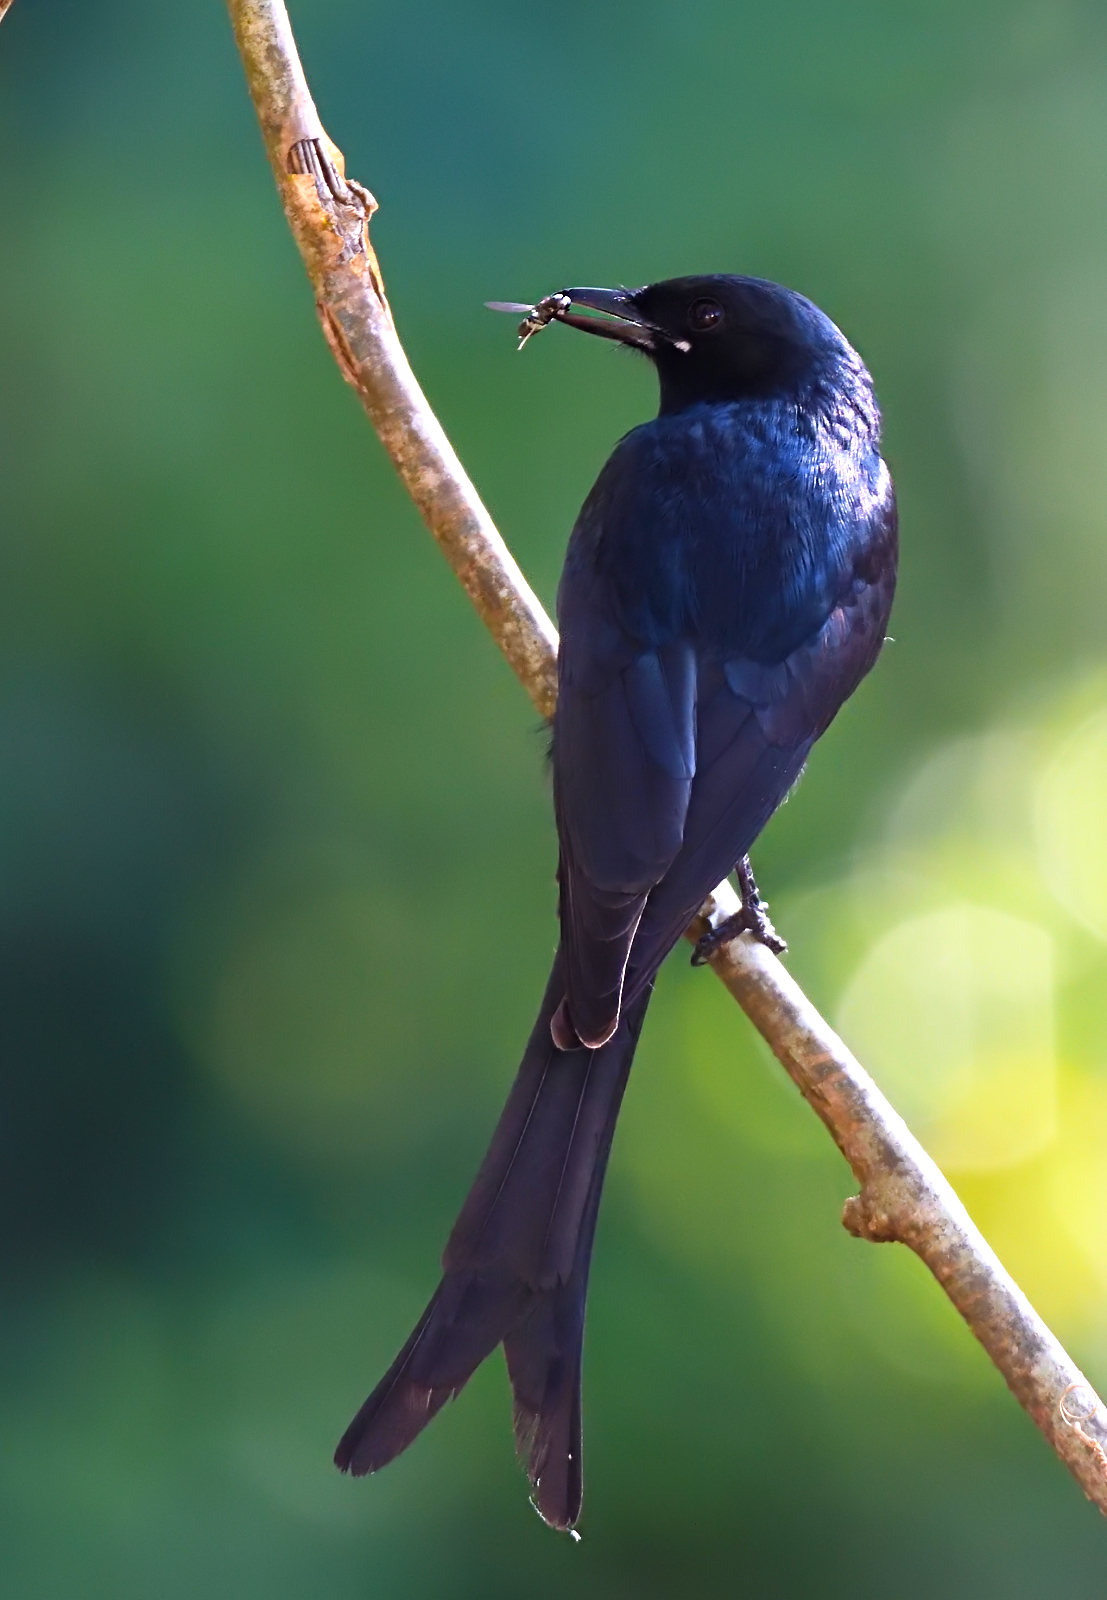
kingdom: Animalia
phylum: Chordata
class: Aves
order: Passeriformes
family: Dicruridae
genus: Dicrurus
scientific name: Dicrurus macrocercus
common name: Black drongo
